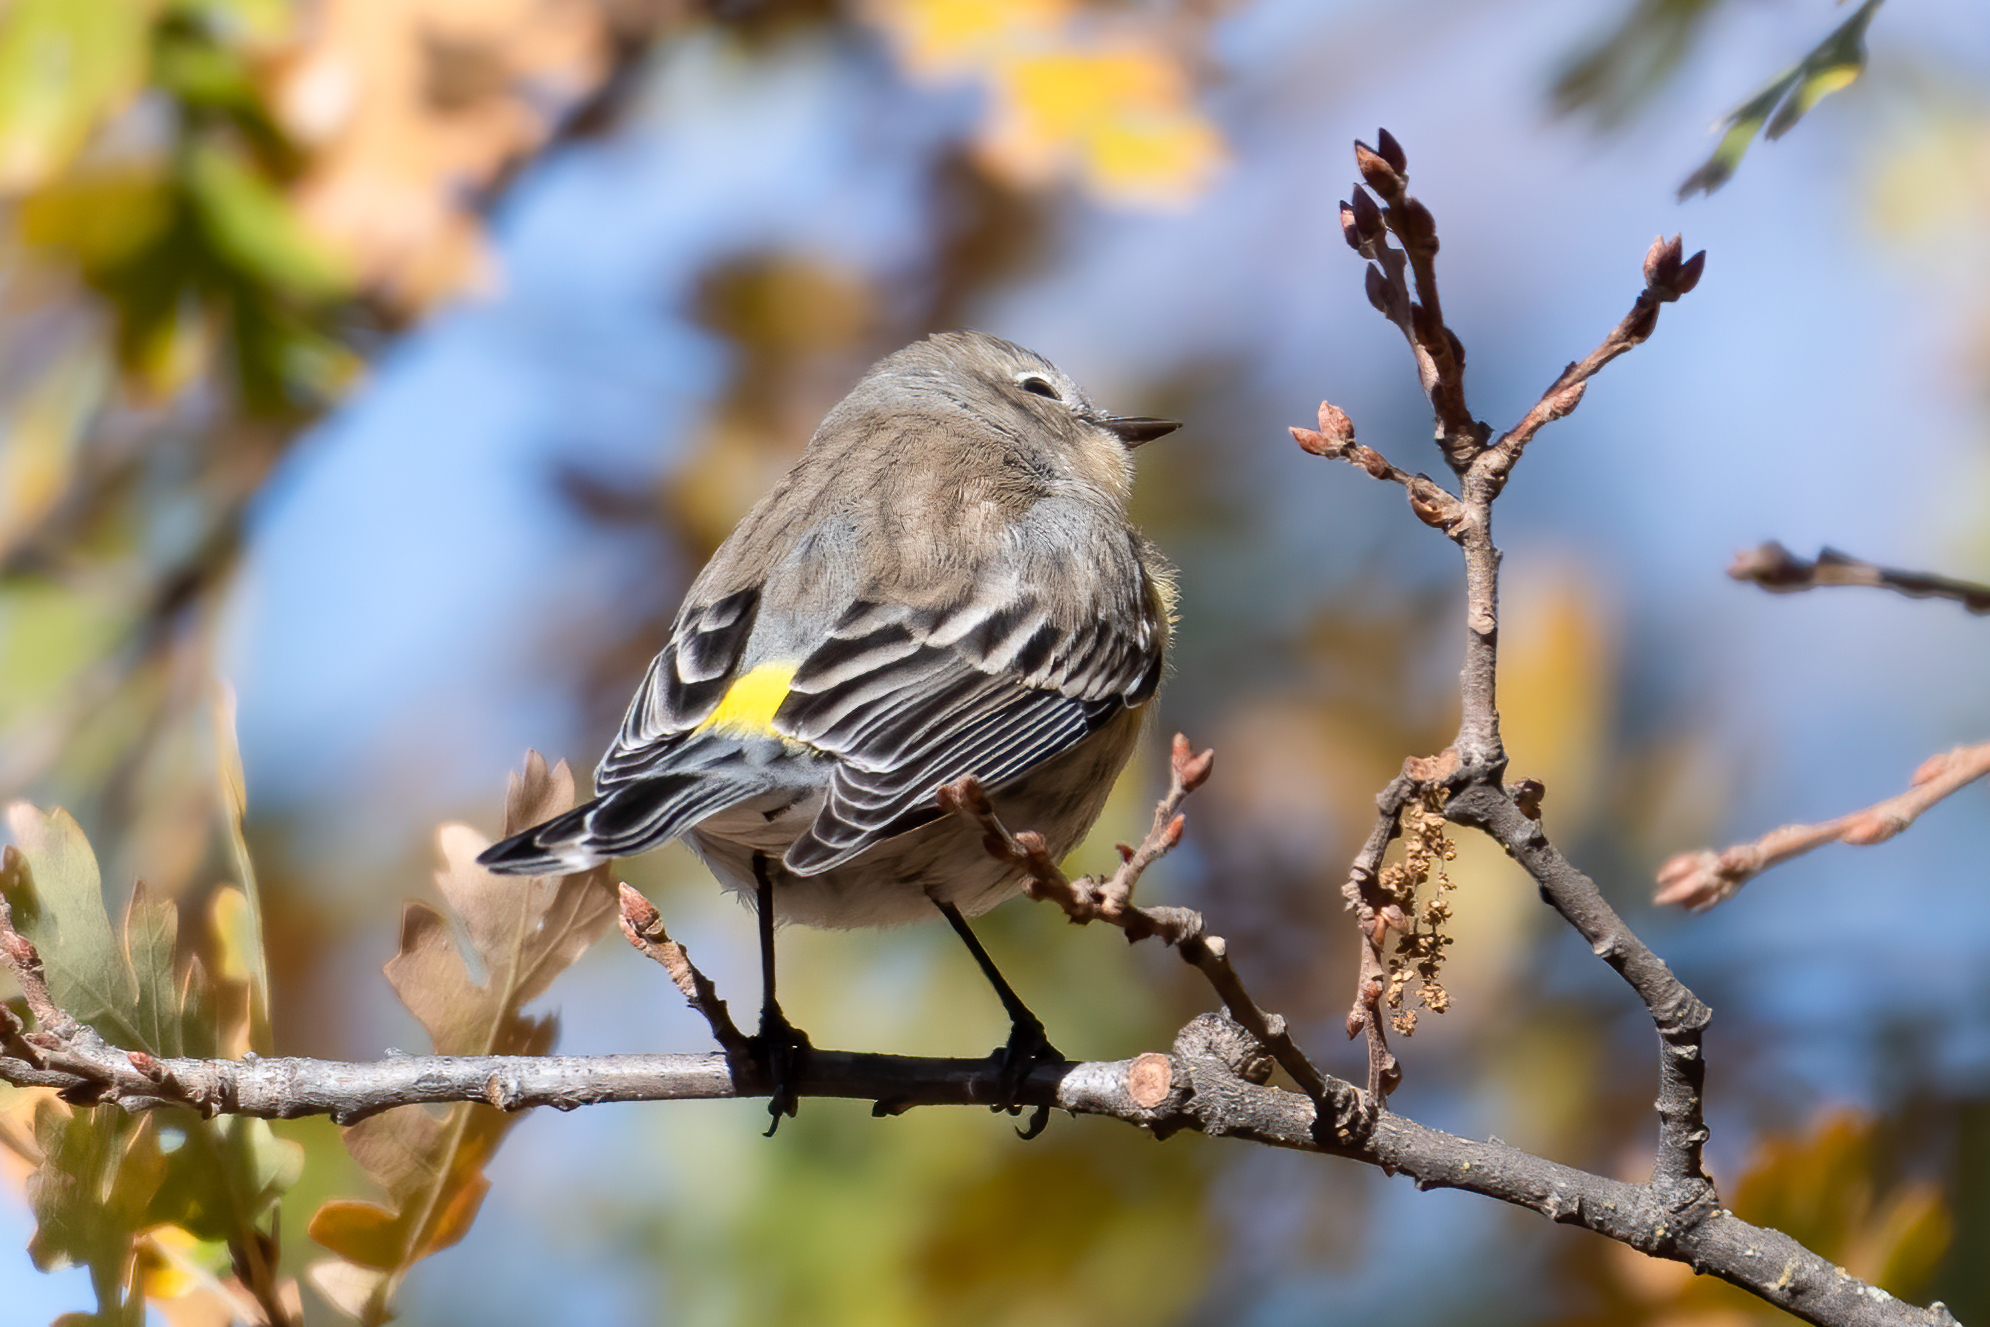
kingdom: Animalia
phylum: Chordata
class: Aves
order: Passeriformes
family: Parulidae
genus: Setophaga
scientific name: Setophaga coronata
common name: Myrtle warbler
